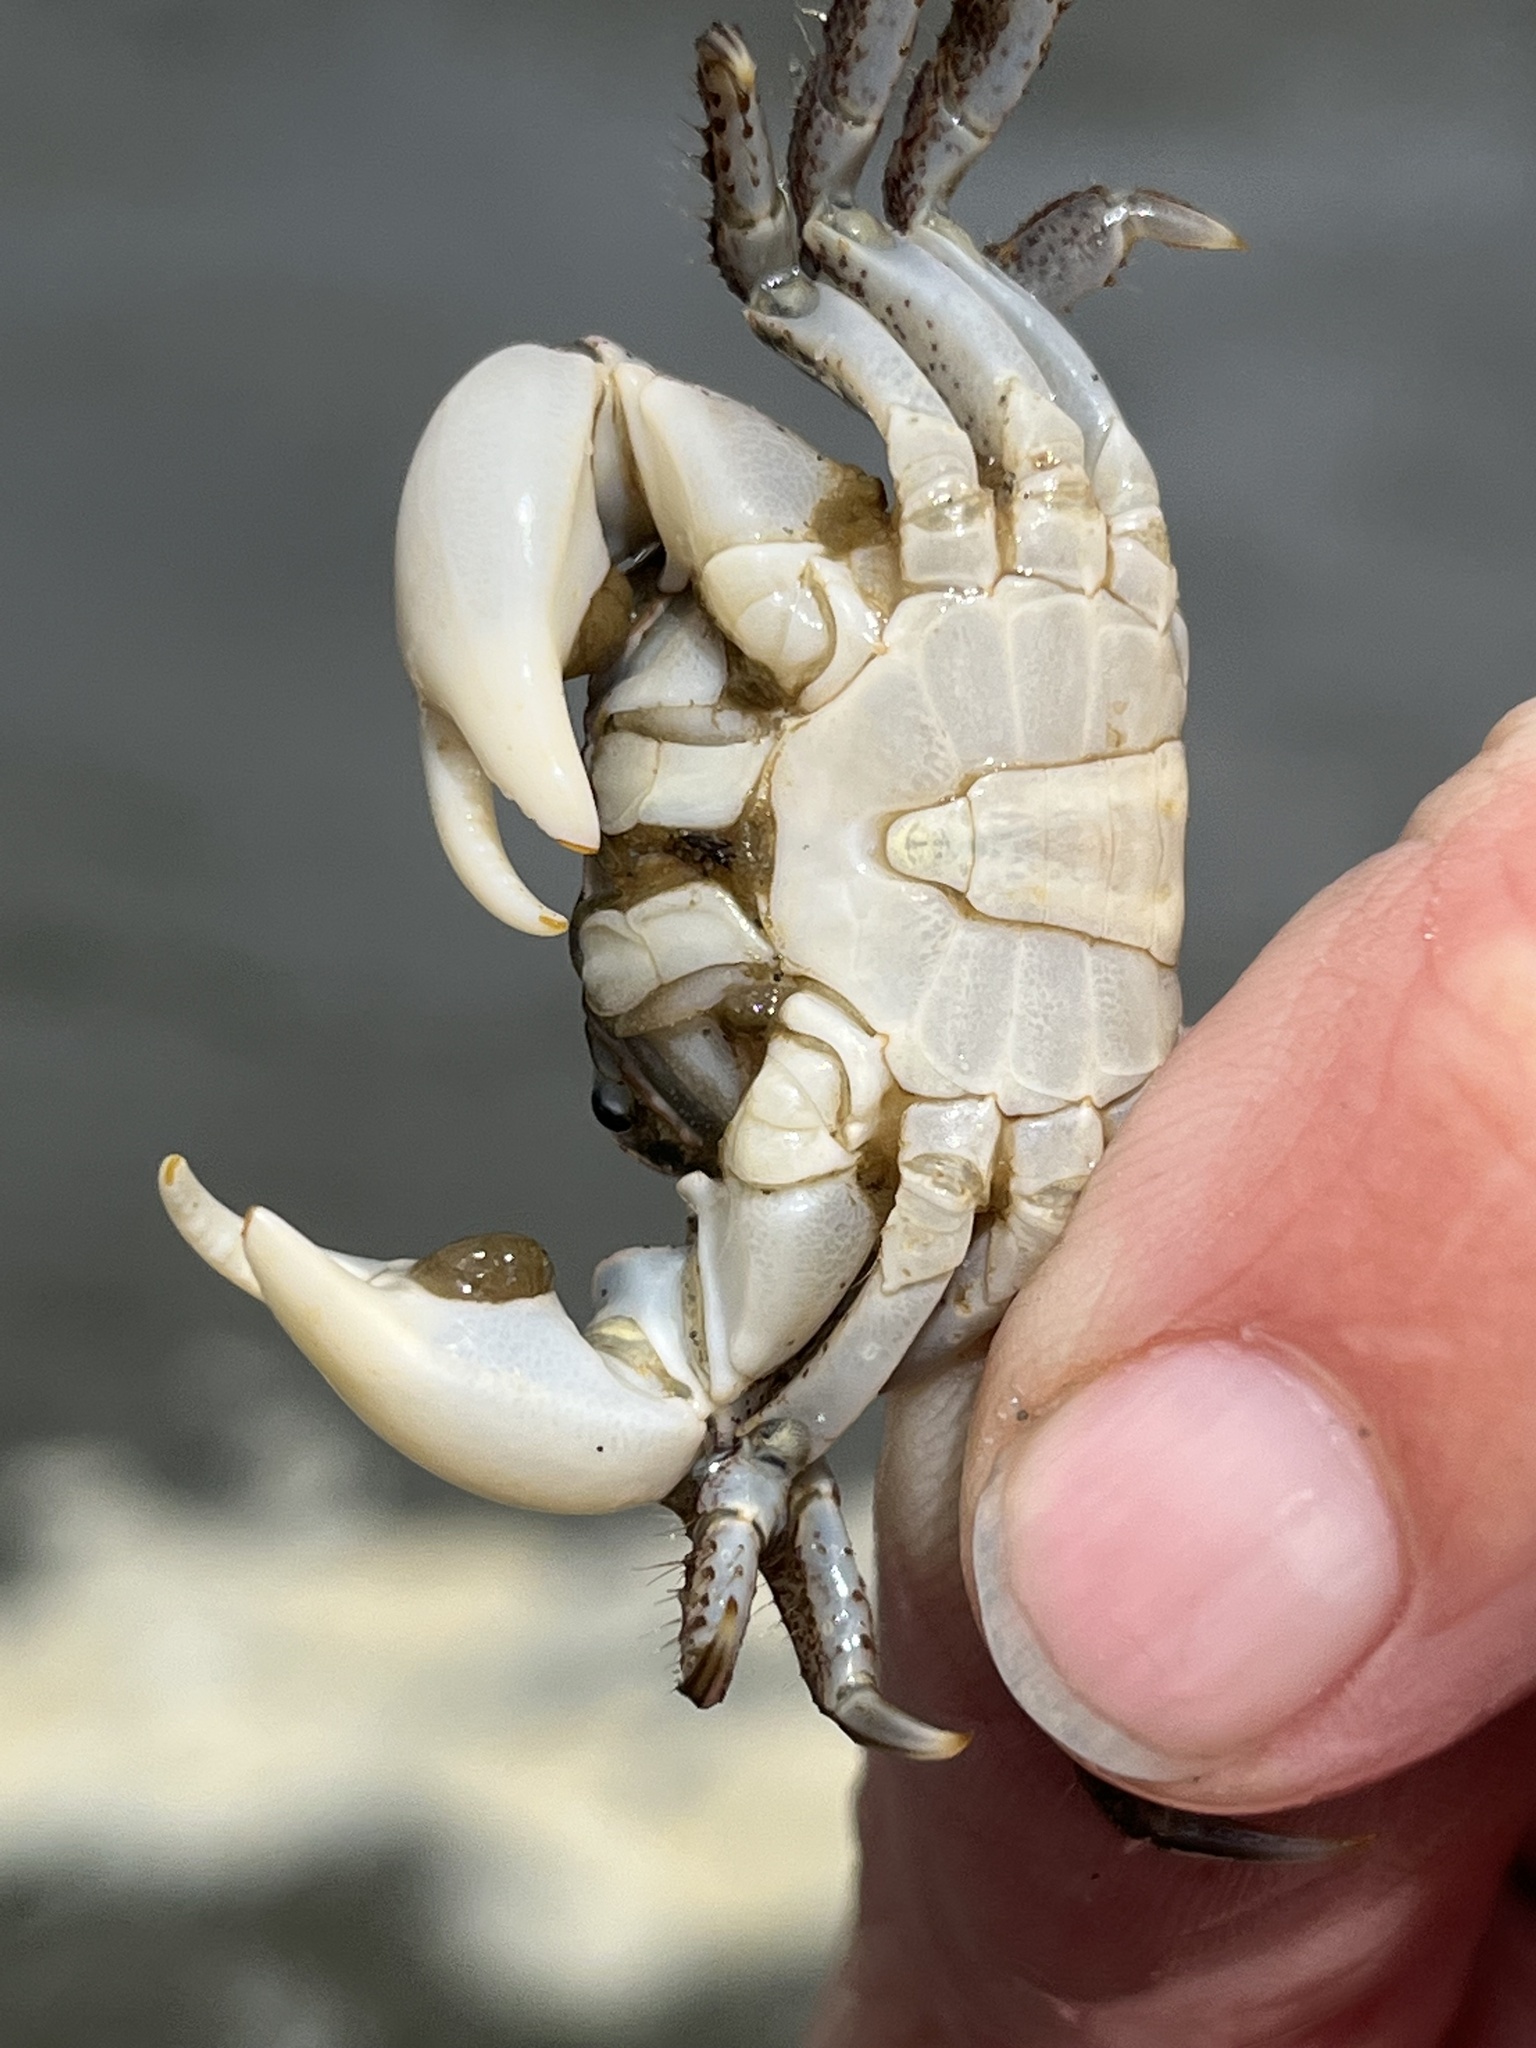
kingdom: Animalia
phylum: Arthropoda
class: Malacostraca
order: Decapoda
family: Varunidae
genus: Hemigrapsus
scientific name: Hemigrapsus oregonensis
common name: Yellow shore crab
